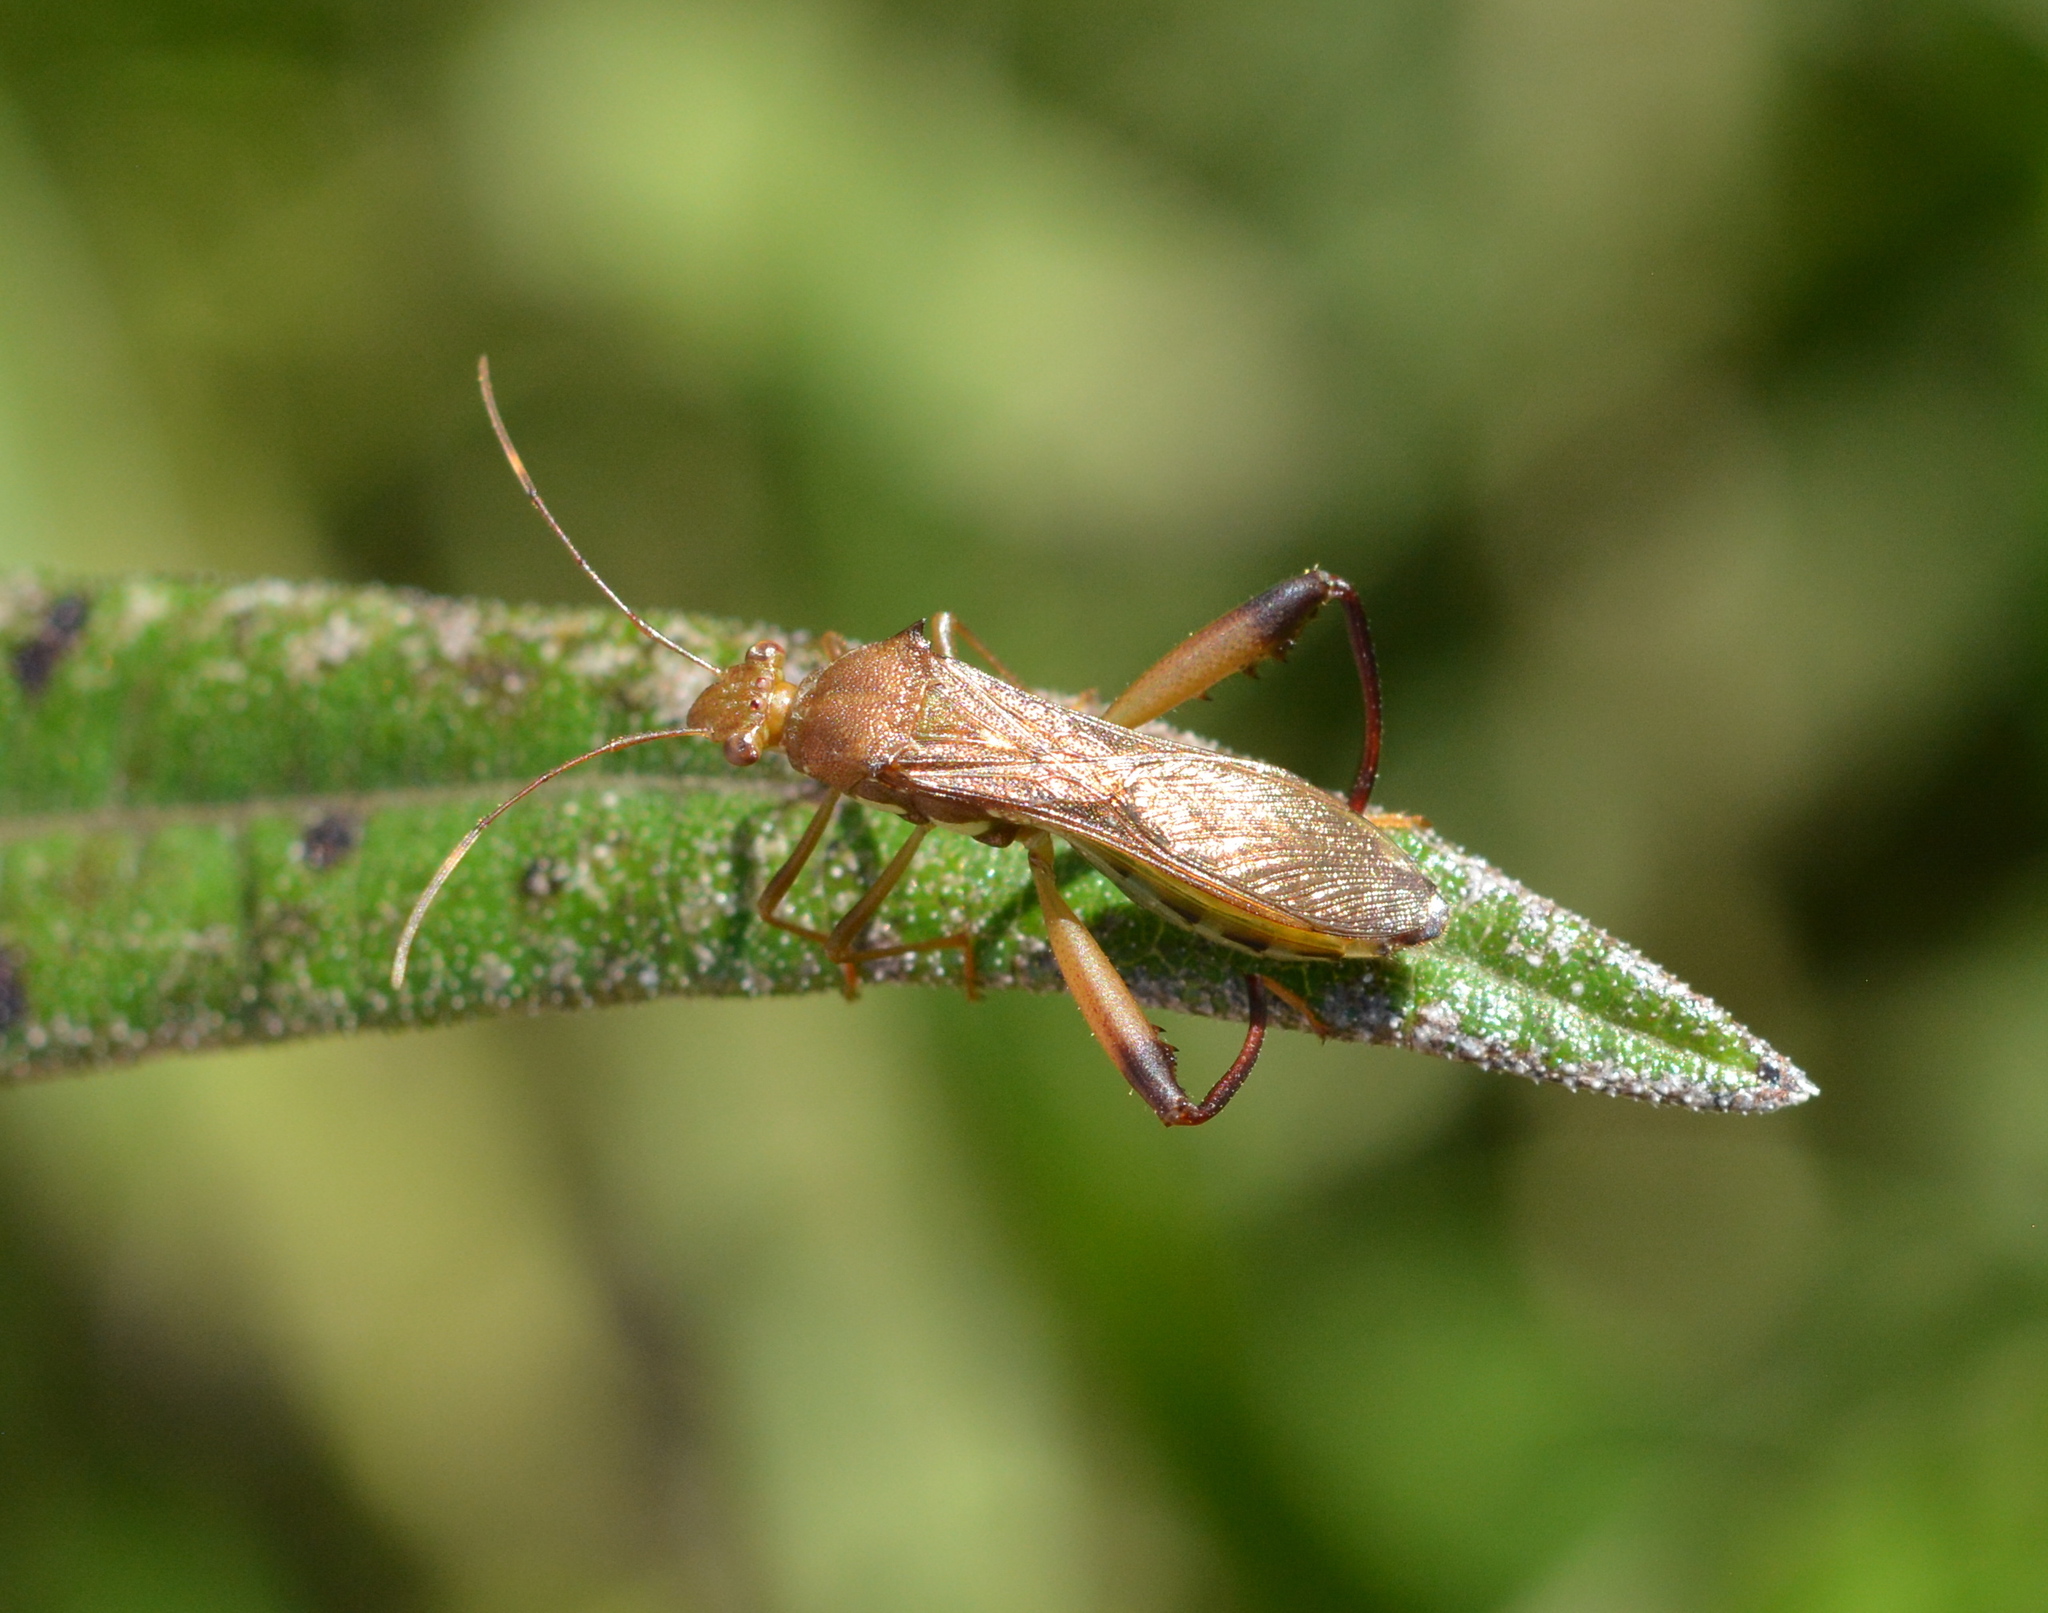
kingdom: Animalia
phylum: Arthropoda
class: Insecta
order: Hemiptera
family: Alydidae
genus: Hyalymenus
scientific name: Hyalymenus tarsatus
